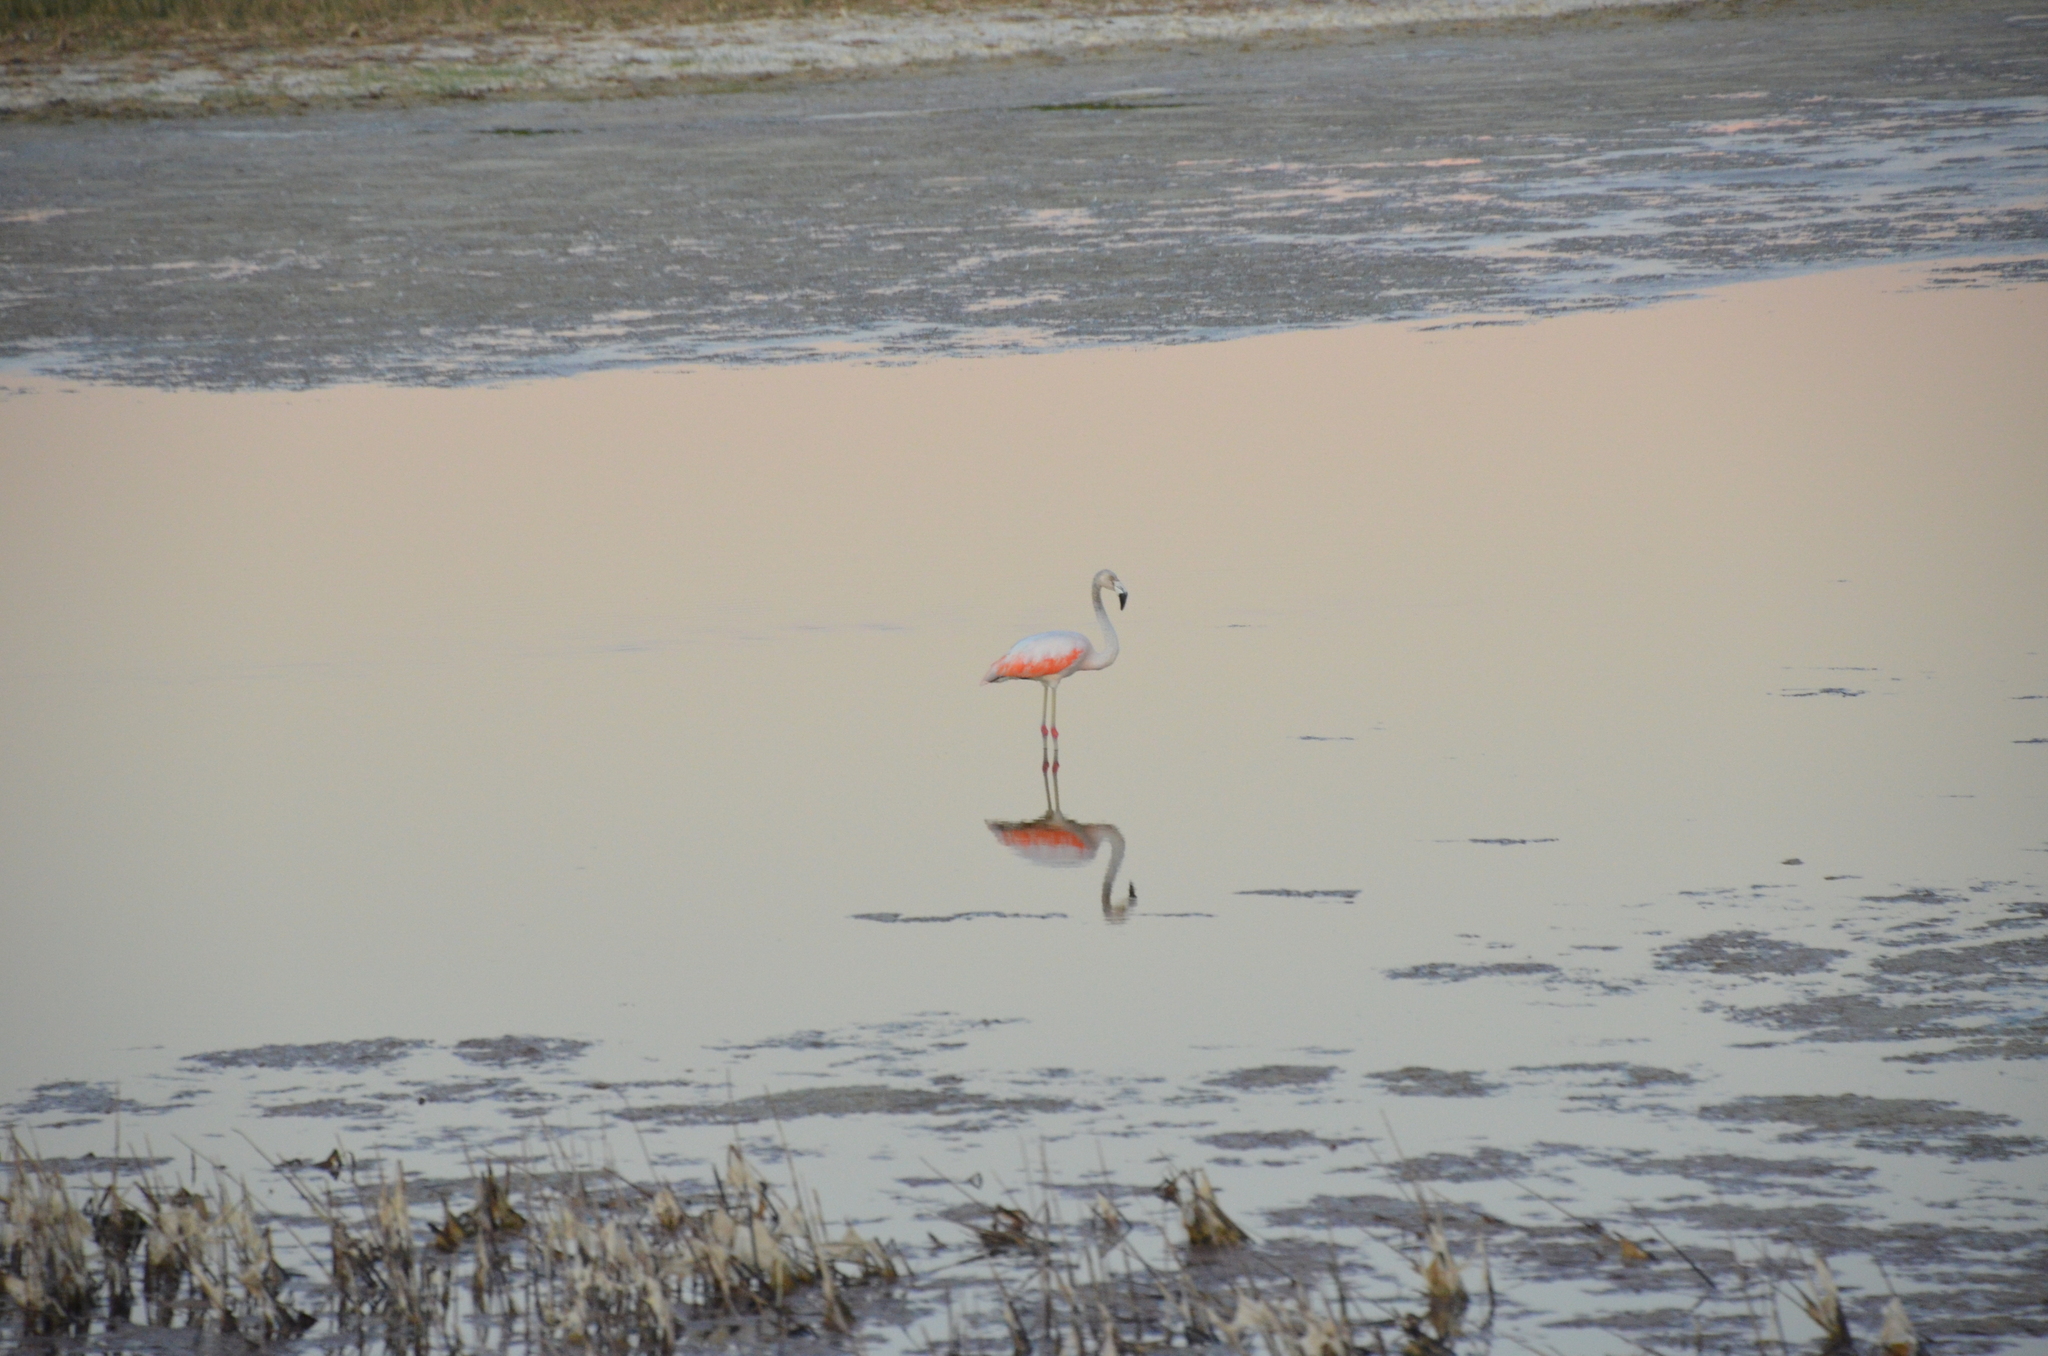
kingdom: Animalia
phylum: Chordata
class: Aves
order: Phoenicopteriformes
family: Phoenicopteridae
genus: Phoenicopterus
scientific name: Phoenicopterus chilensis
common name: Chilean flamingo
